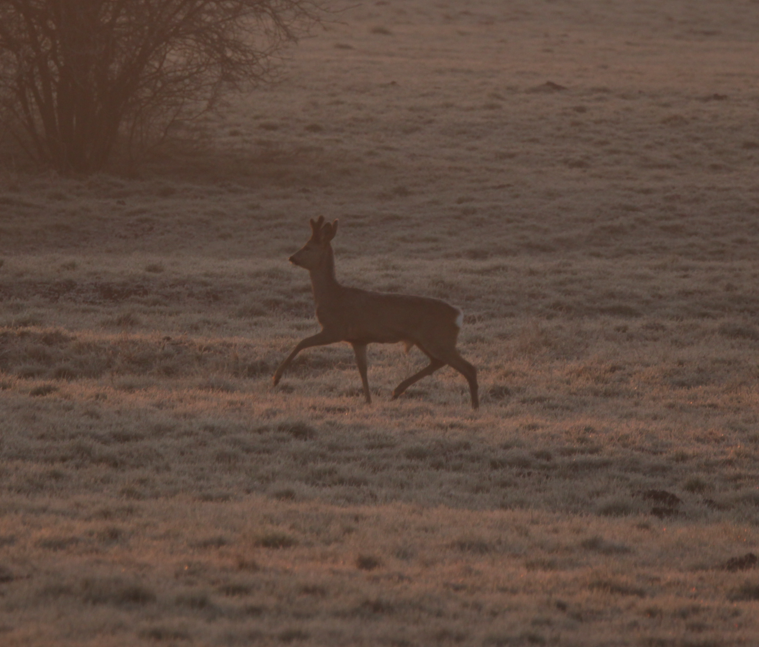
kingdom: Animalia
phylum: Chordata
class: Mammalia
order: Artiodactyla
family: Cervidae
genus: Capreolus
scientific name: Capreolus capreolus
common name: Western roe deer
